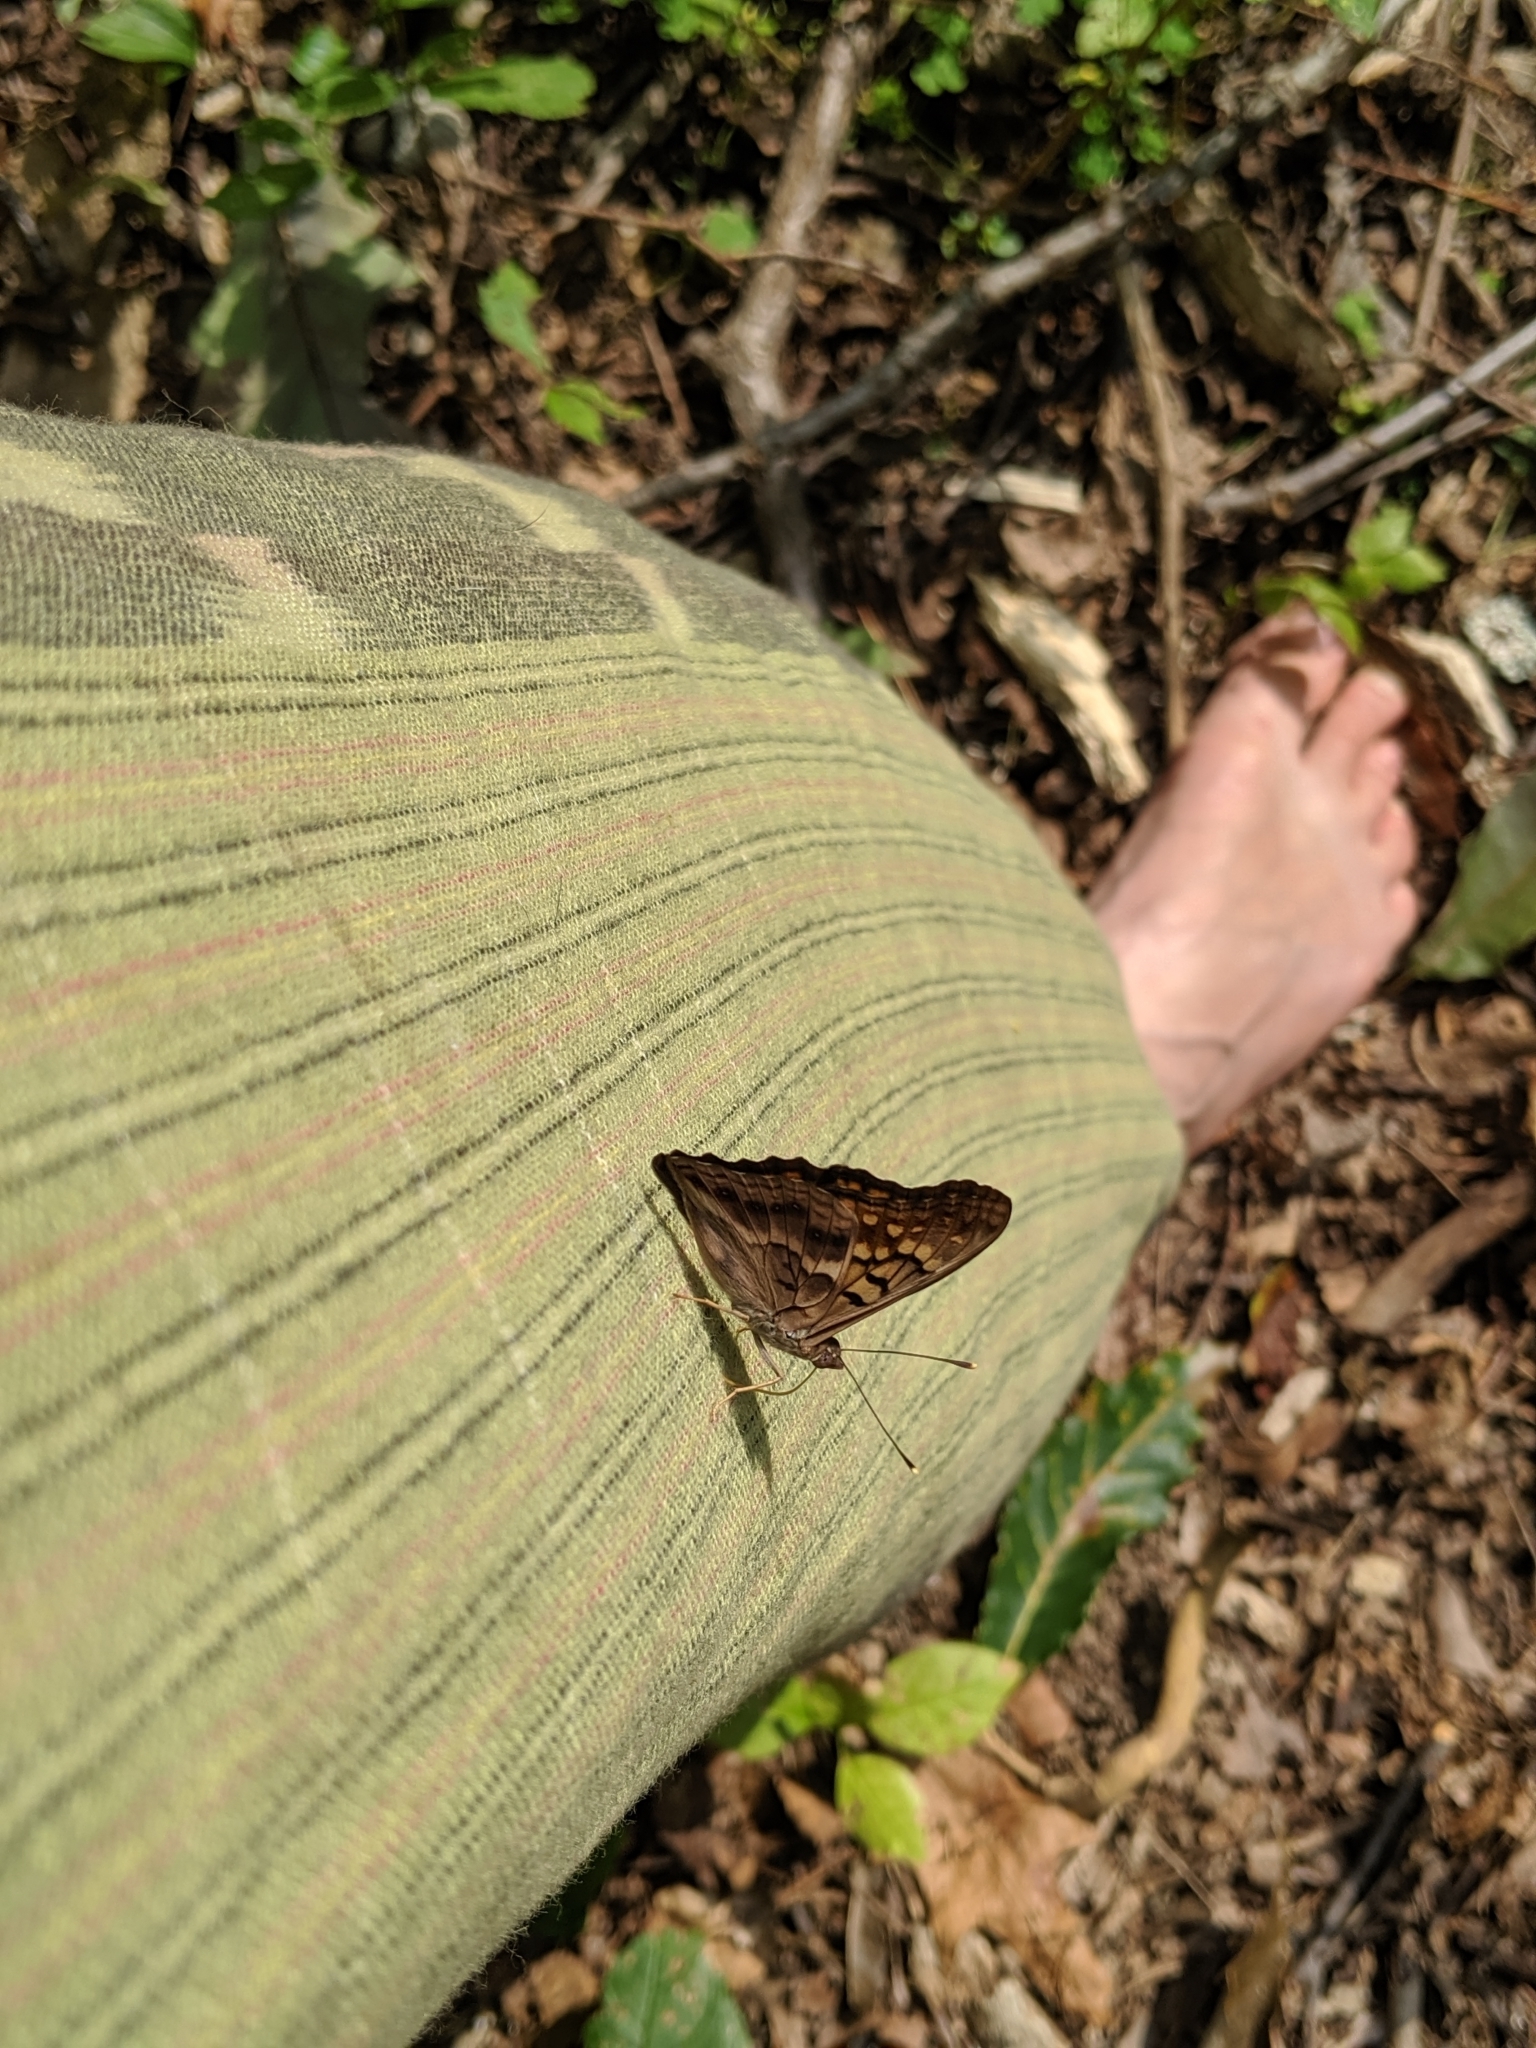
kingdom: Animalia
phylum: Arthropoda
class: Insecta
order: Lepidoptera
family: Nymphalidae
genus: Asterocampa
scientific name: Asterocampa clyton
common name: Tawny emperor
